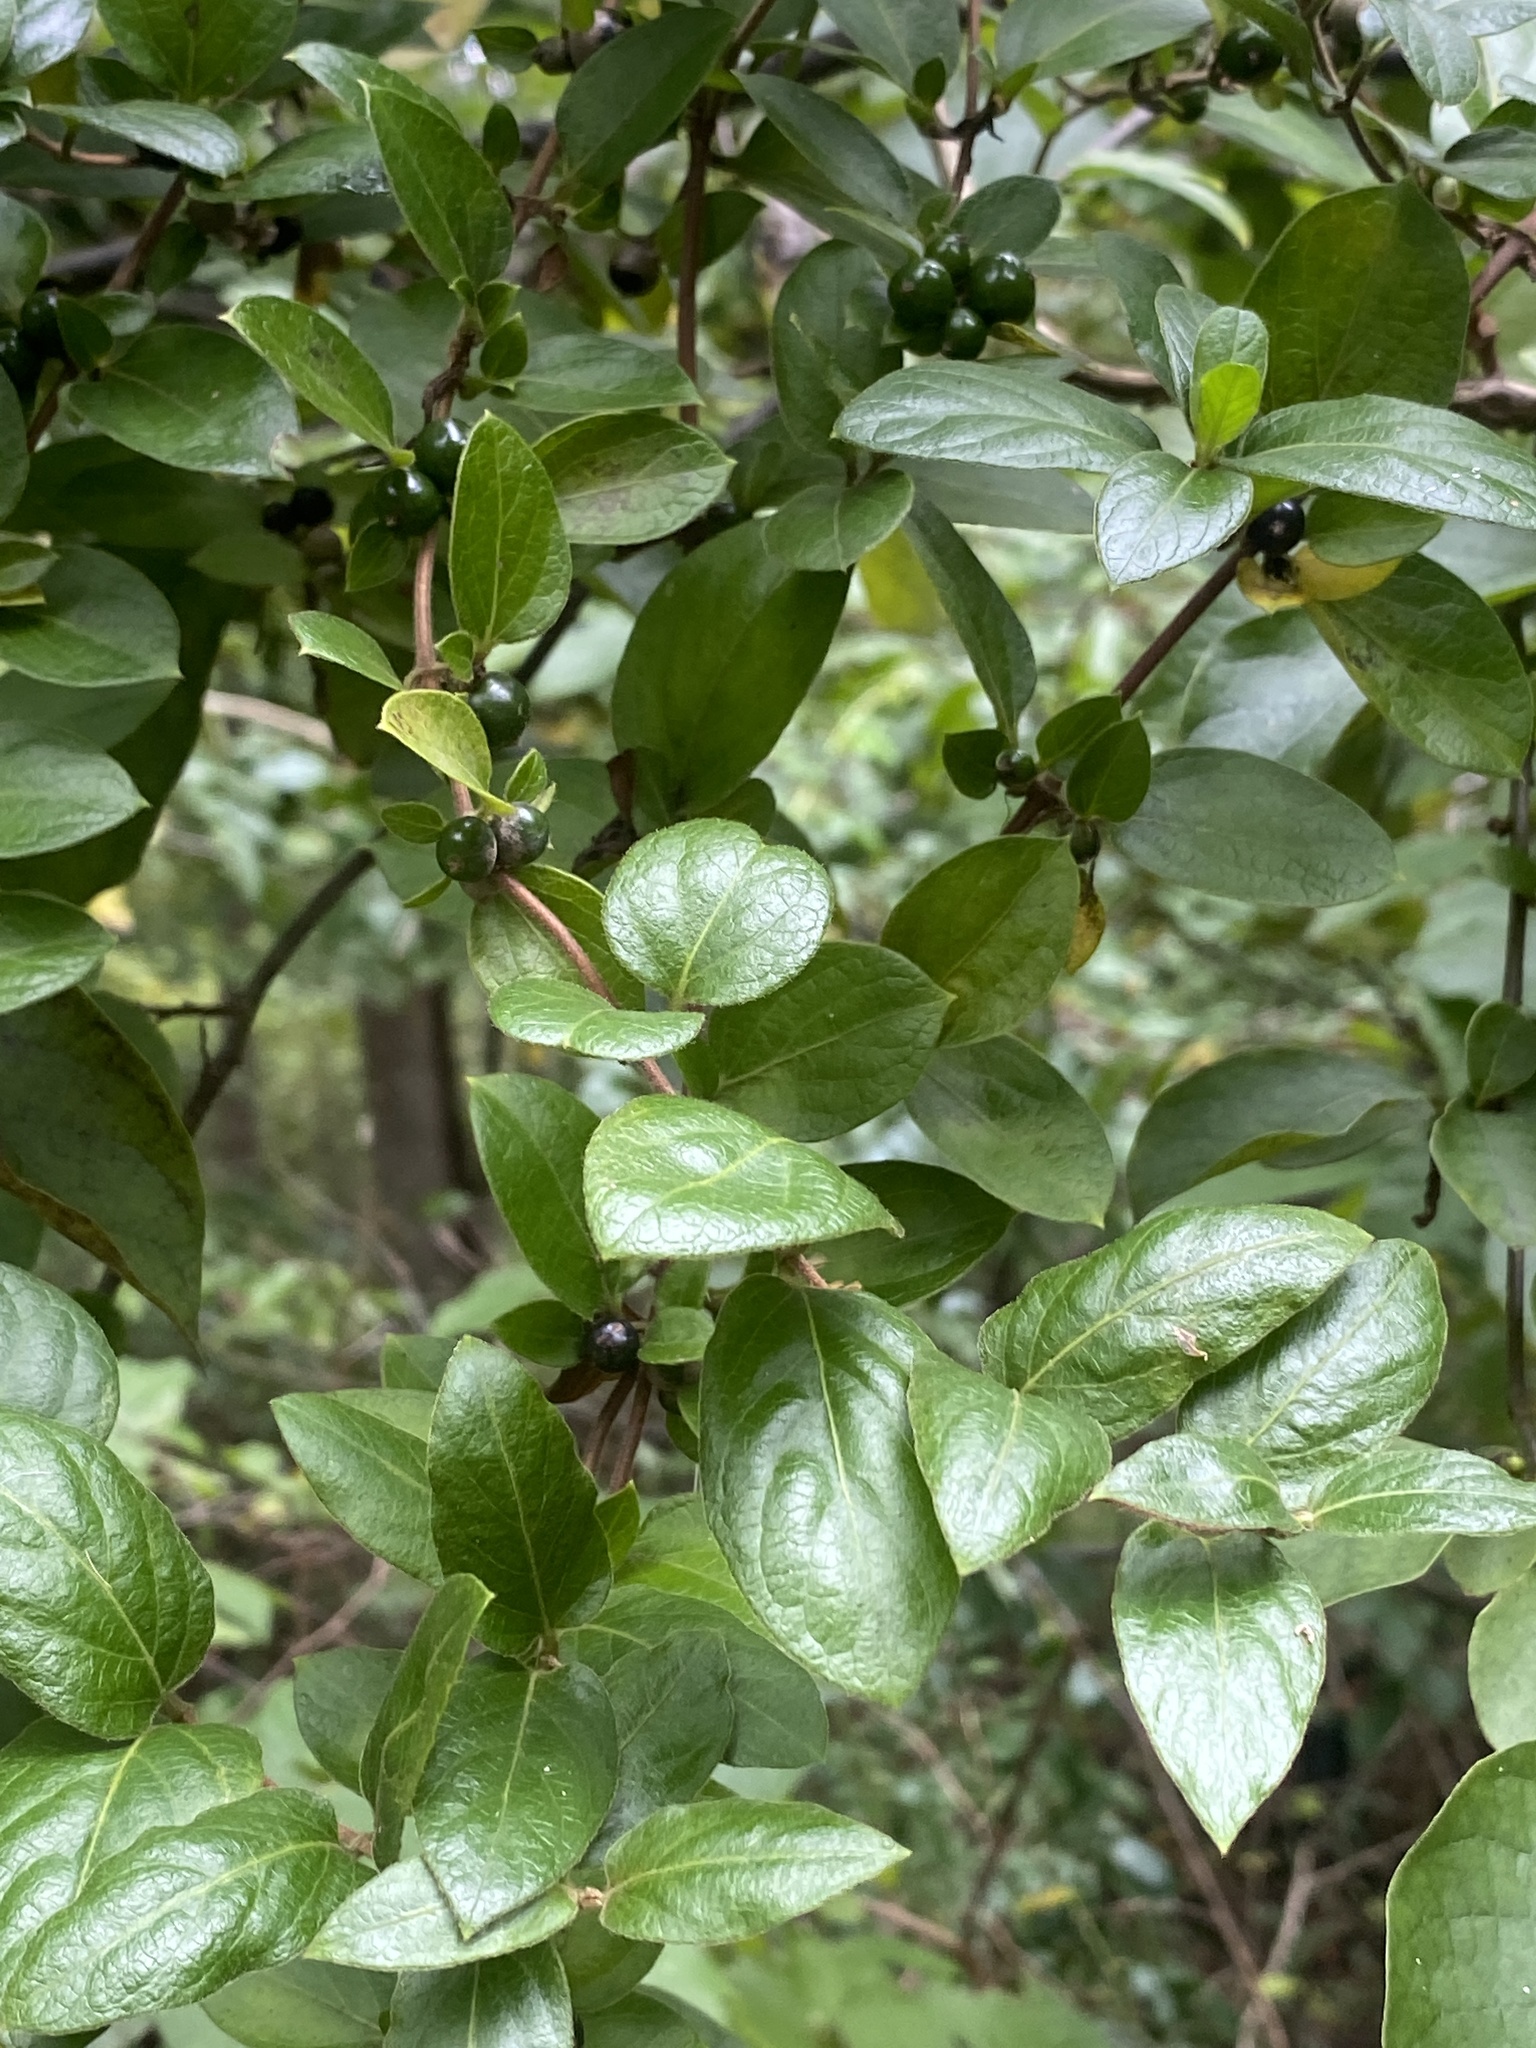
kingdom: Plantae
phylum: Tracheophyta
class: Magnoliopsida
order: Dipsacales
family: Caprifoliaceae
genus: Lonicera
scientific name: Lonicera japonica
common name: Japanese honeysuckle
